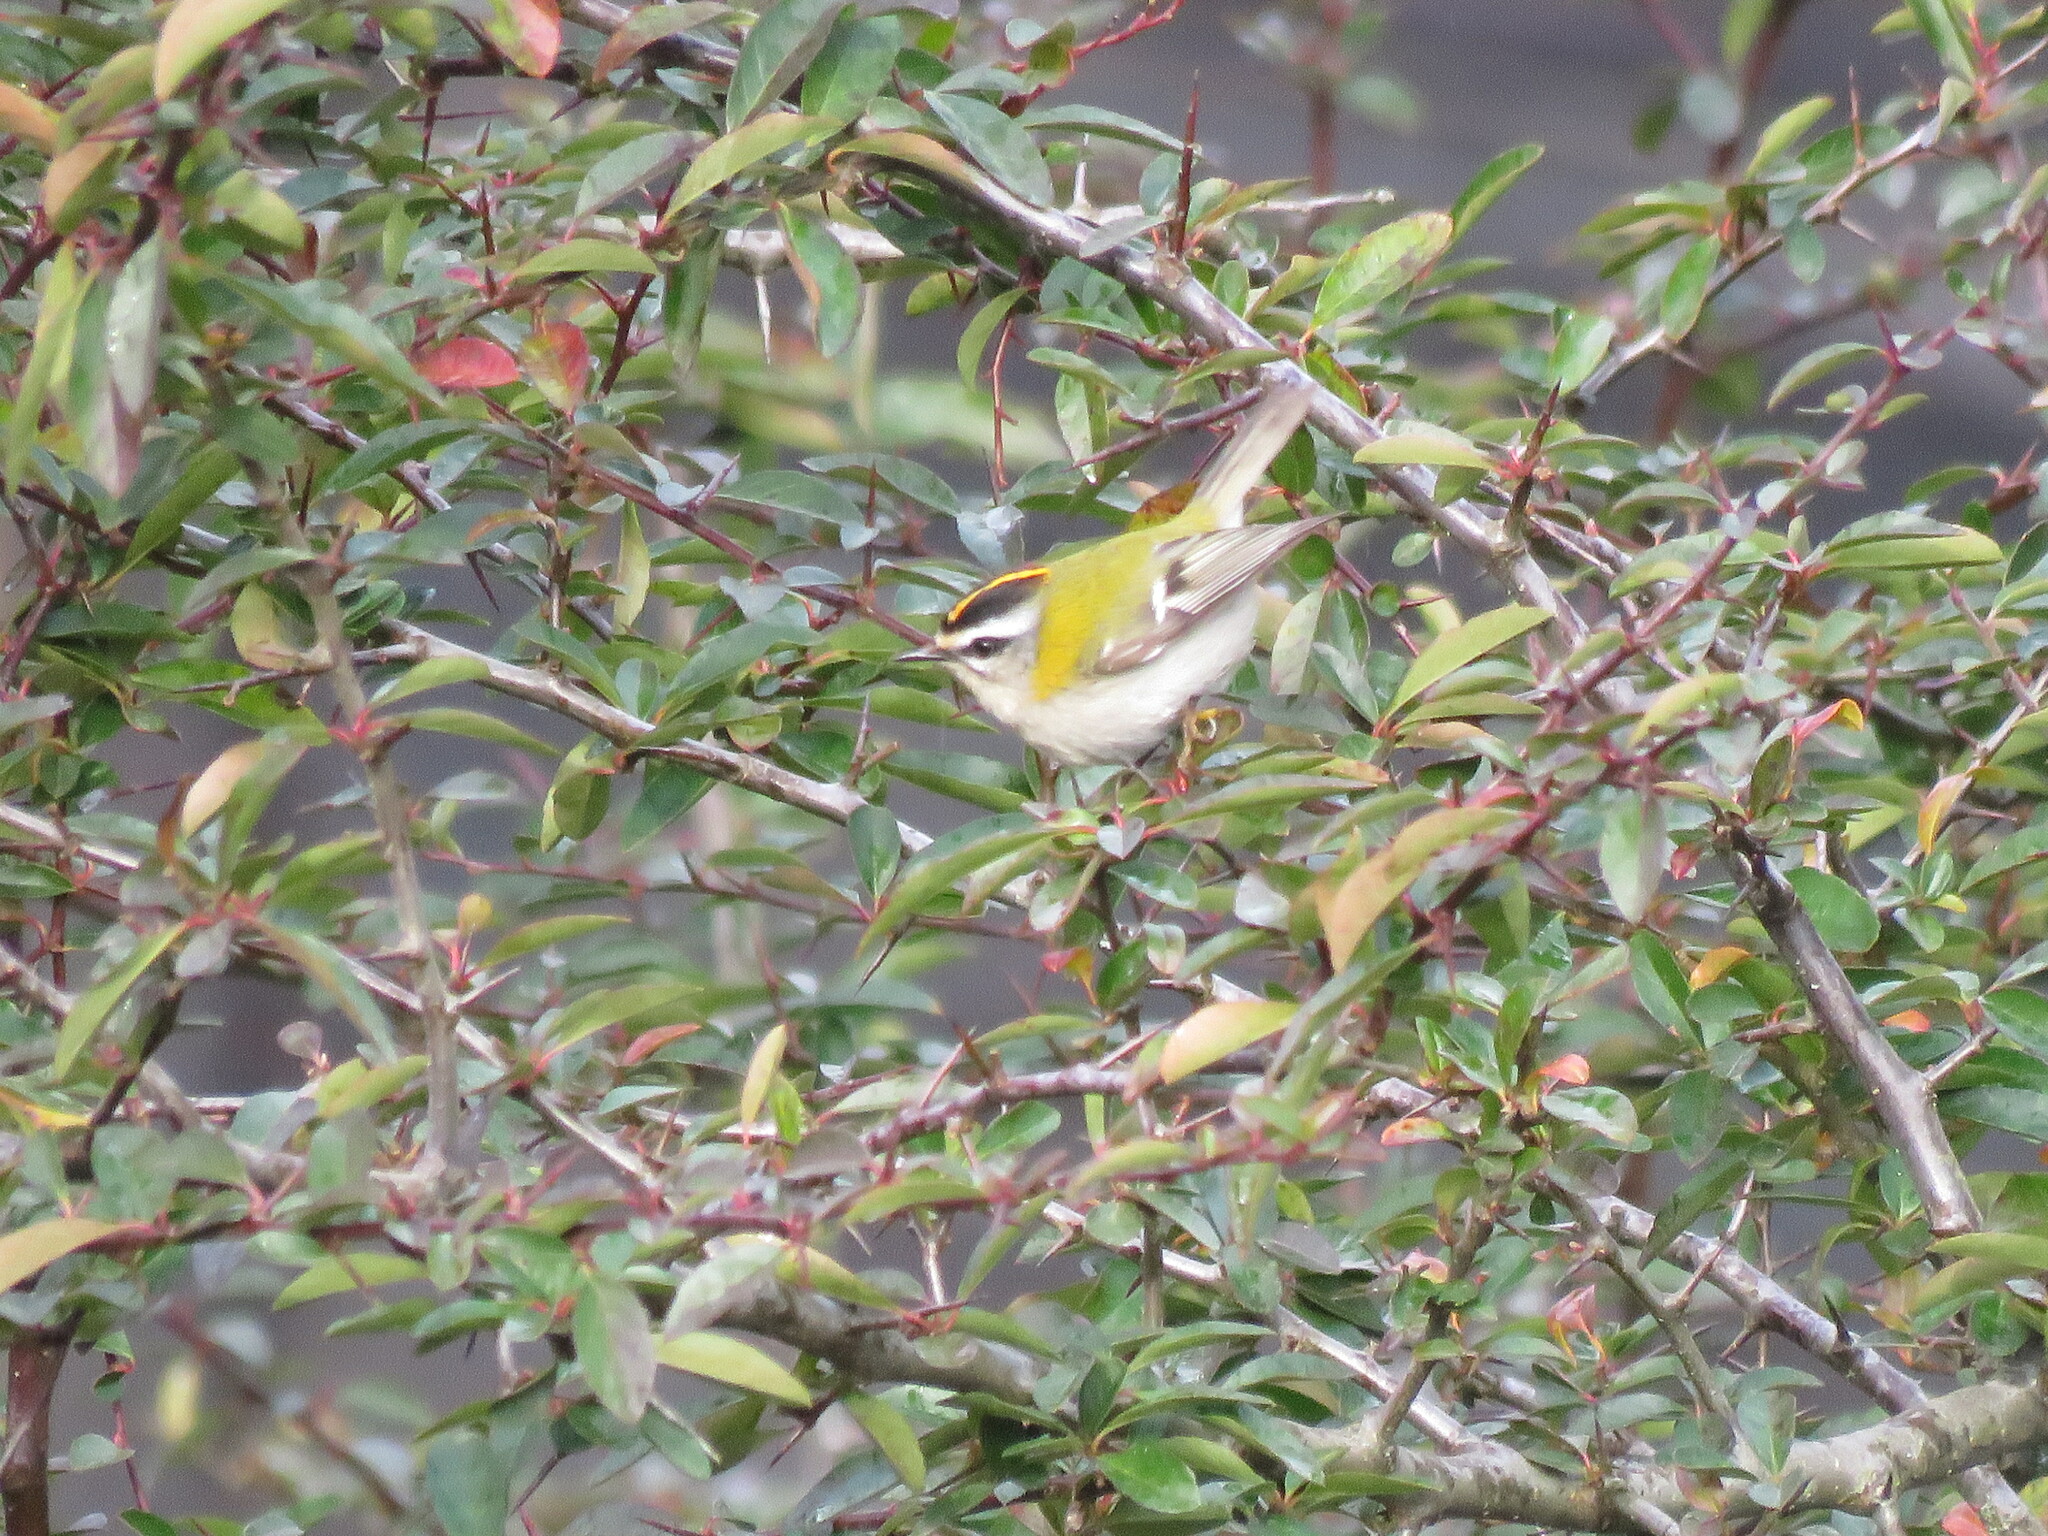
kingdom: Animalia
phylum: Chordata
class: Aves
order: Passeriformes
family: Regulidae
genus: Regulus
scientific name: Regulus ignicapilla
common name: Firecrest
